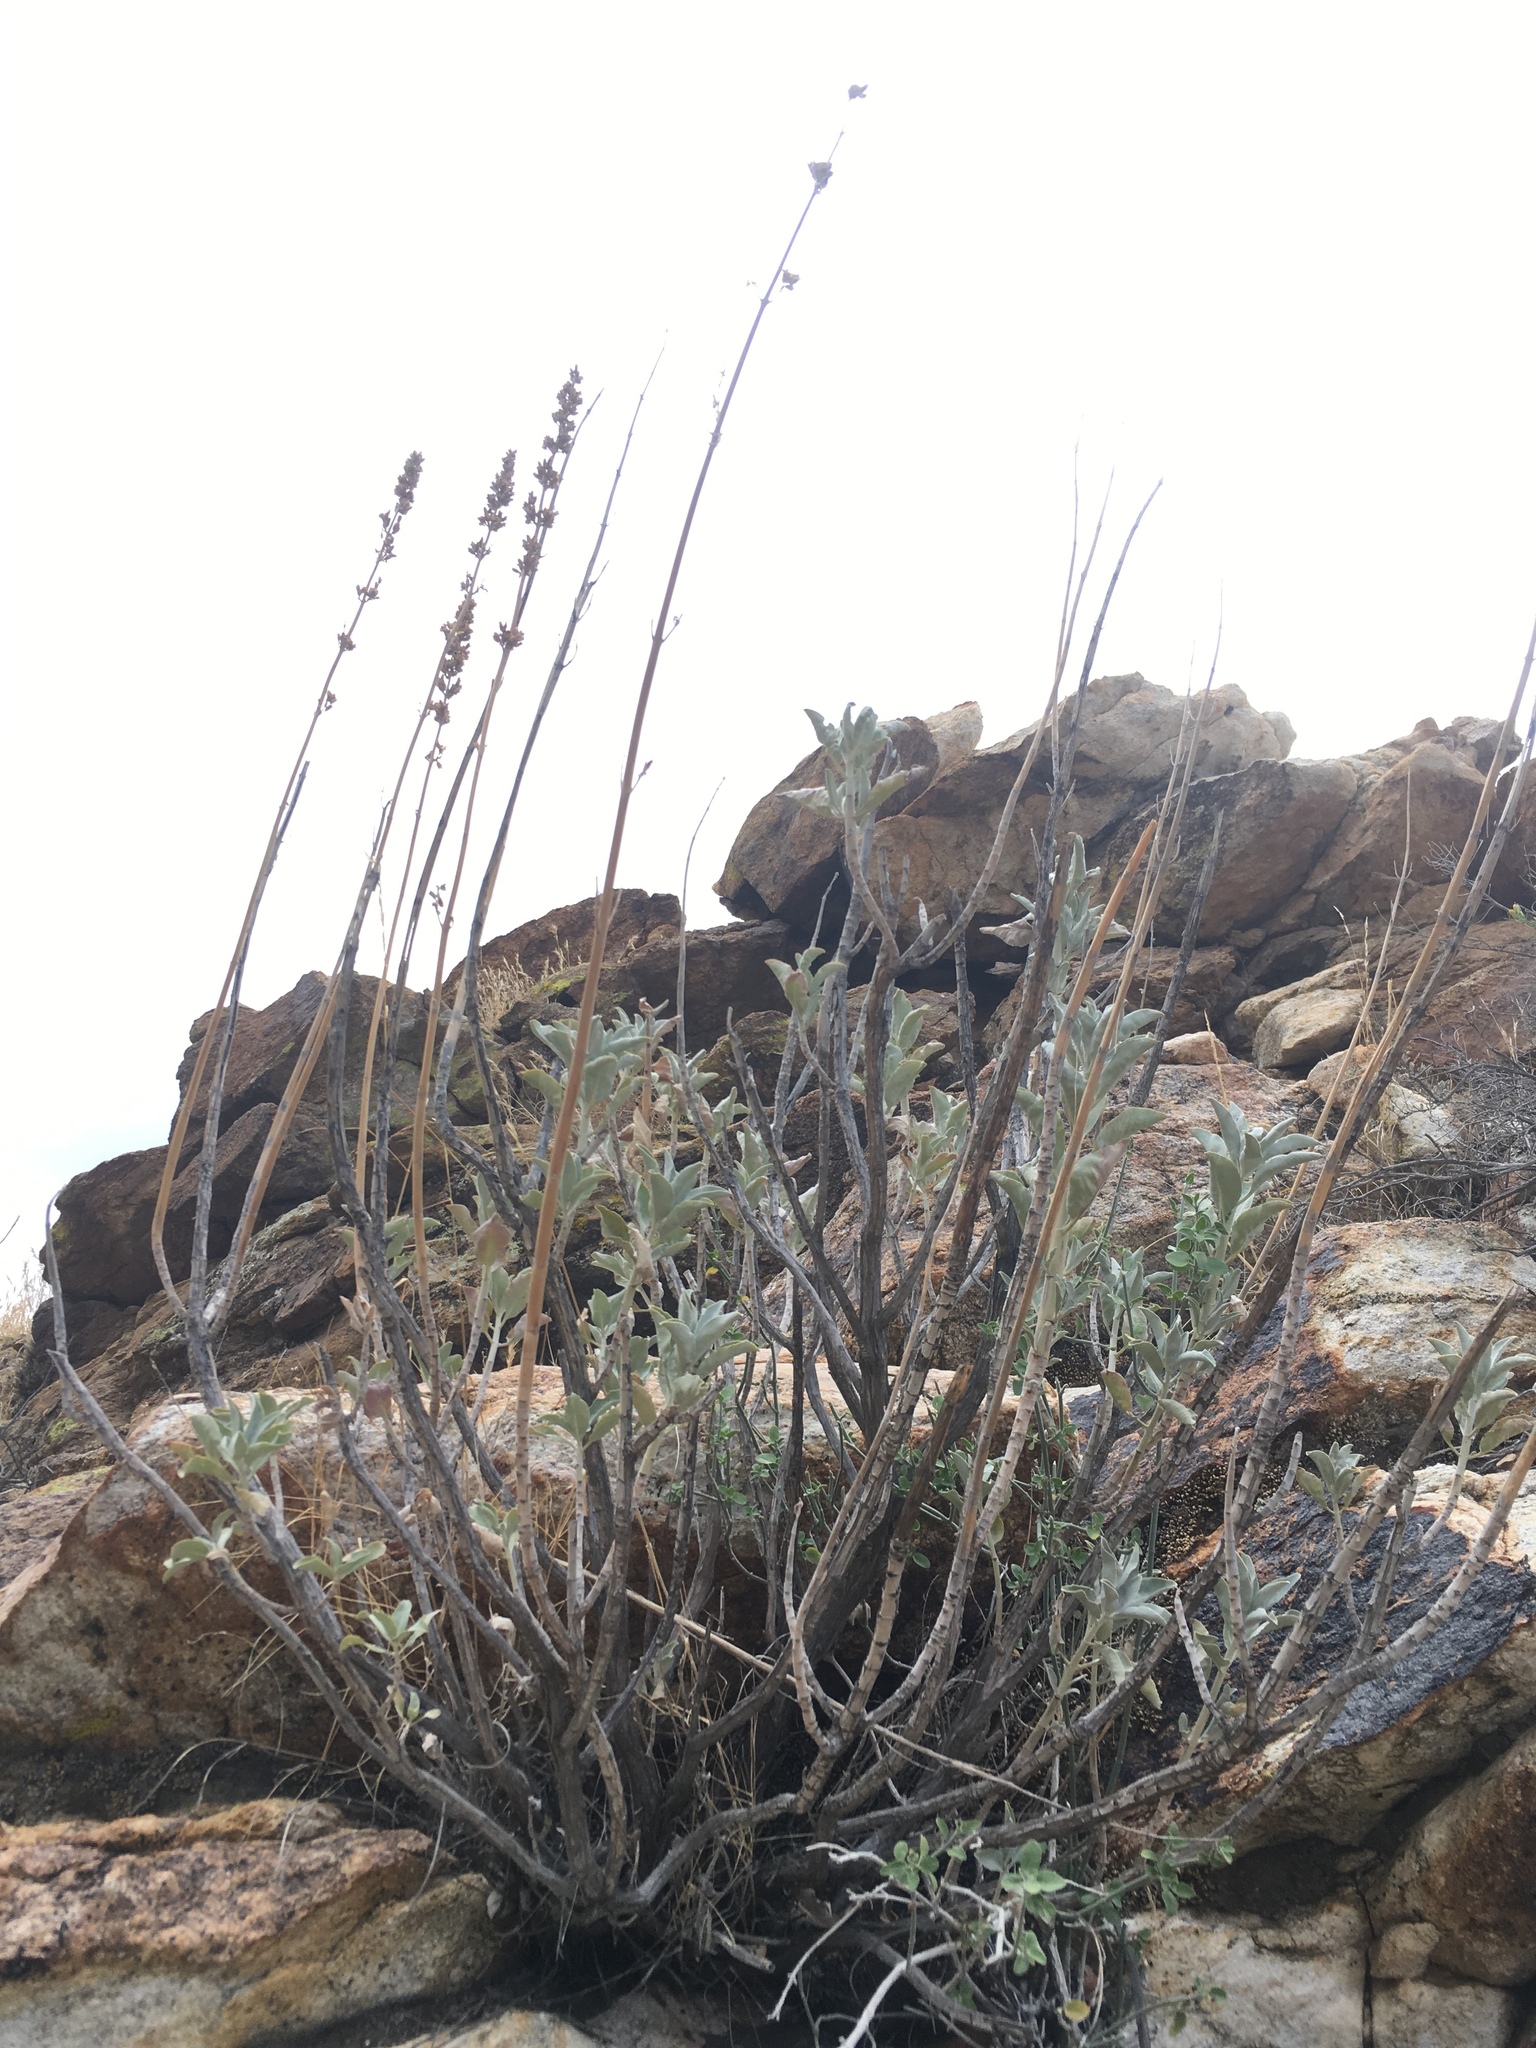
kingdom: Plantae
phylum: Tracheophyta
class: Magnoliopsida
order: Lamiales
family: Lamiaceae
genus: Salvia
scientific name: Salvia apiana
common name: White sage
